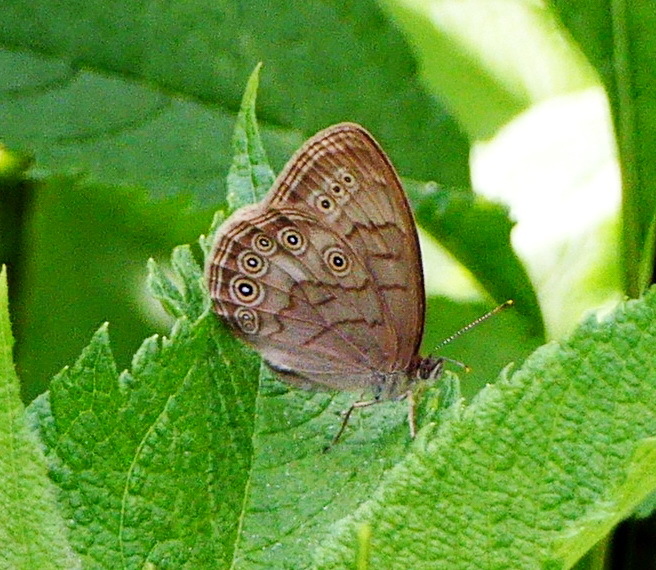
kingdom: Animalia
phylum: Arthropoda
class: Insecta
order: Lepidoptera
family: Nymphalidae
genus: Lethe
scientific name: Lethe eurydice
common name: Eyed brown
